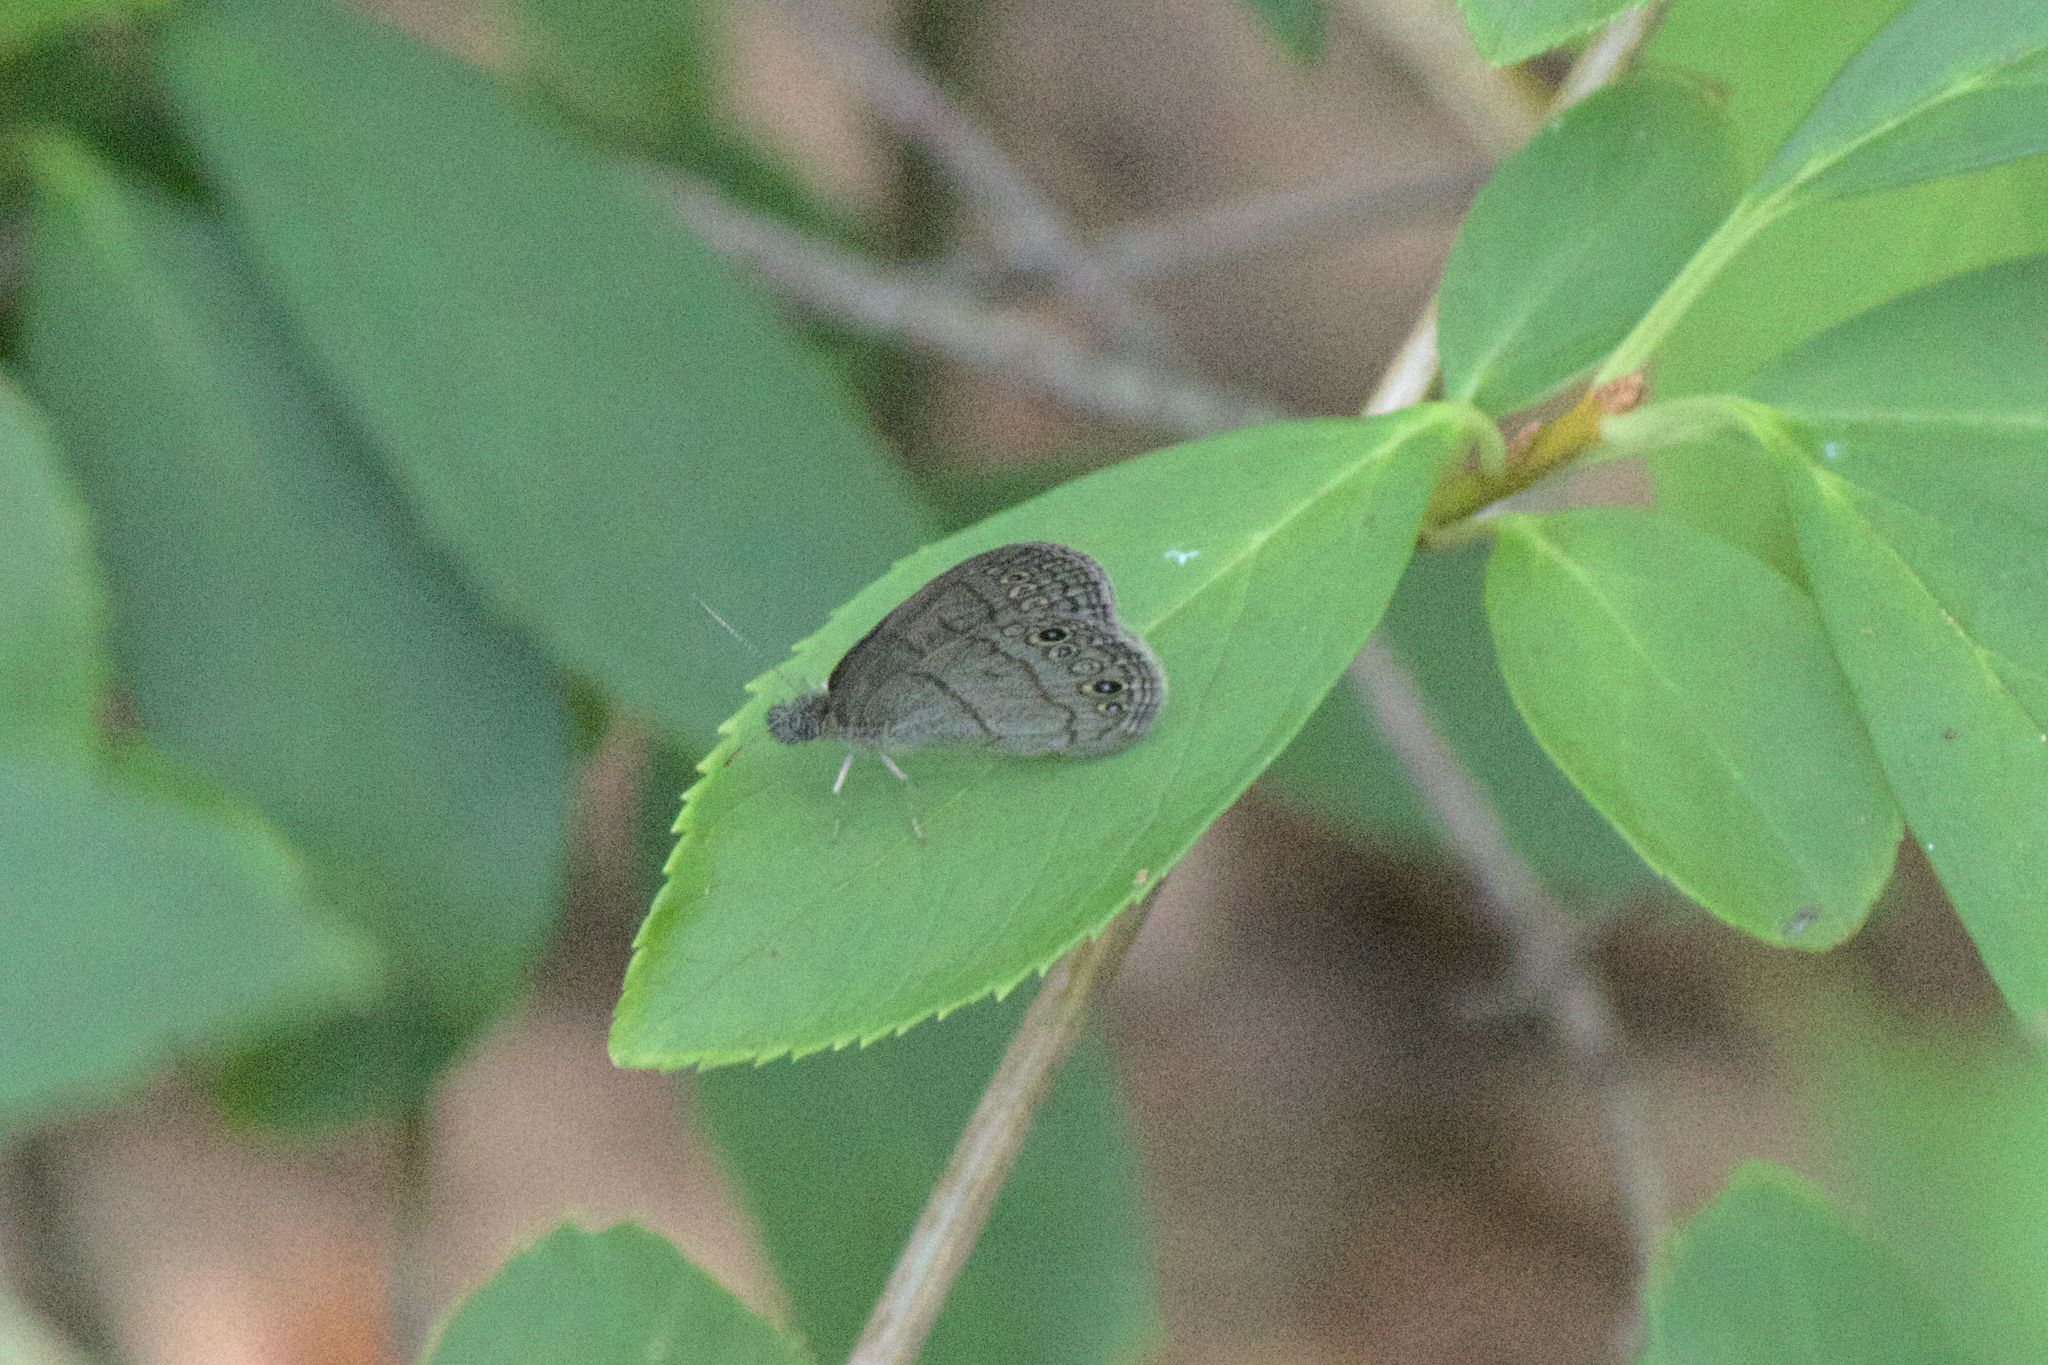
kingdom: Animalia
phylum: Arthropoda
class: Insecta
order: Lepidoptera
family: Nymphalidae
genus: Hermeuptychia
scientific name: Hermeuptychia hermes
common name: Hermes satyr
